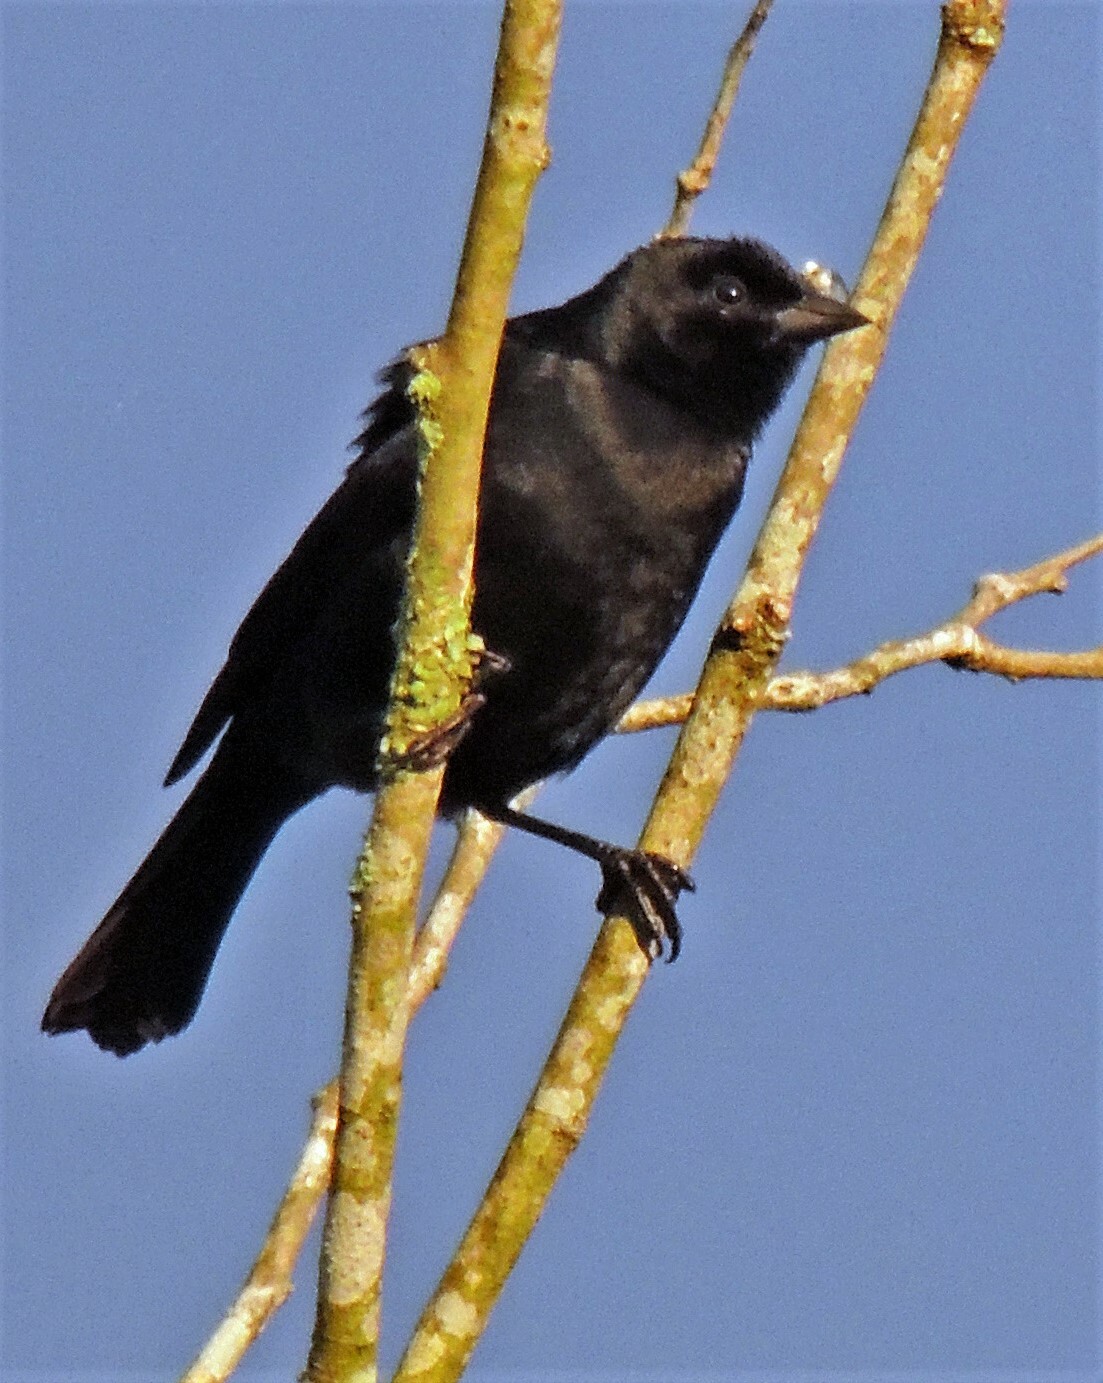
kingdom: Animalia
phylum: Chordata
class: Aves
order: Passeriformes
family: Icteridae
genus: Molothrus
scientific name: Molothrus bonariensis
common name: Shiny cowbird
